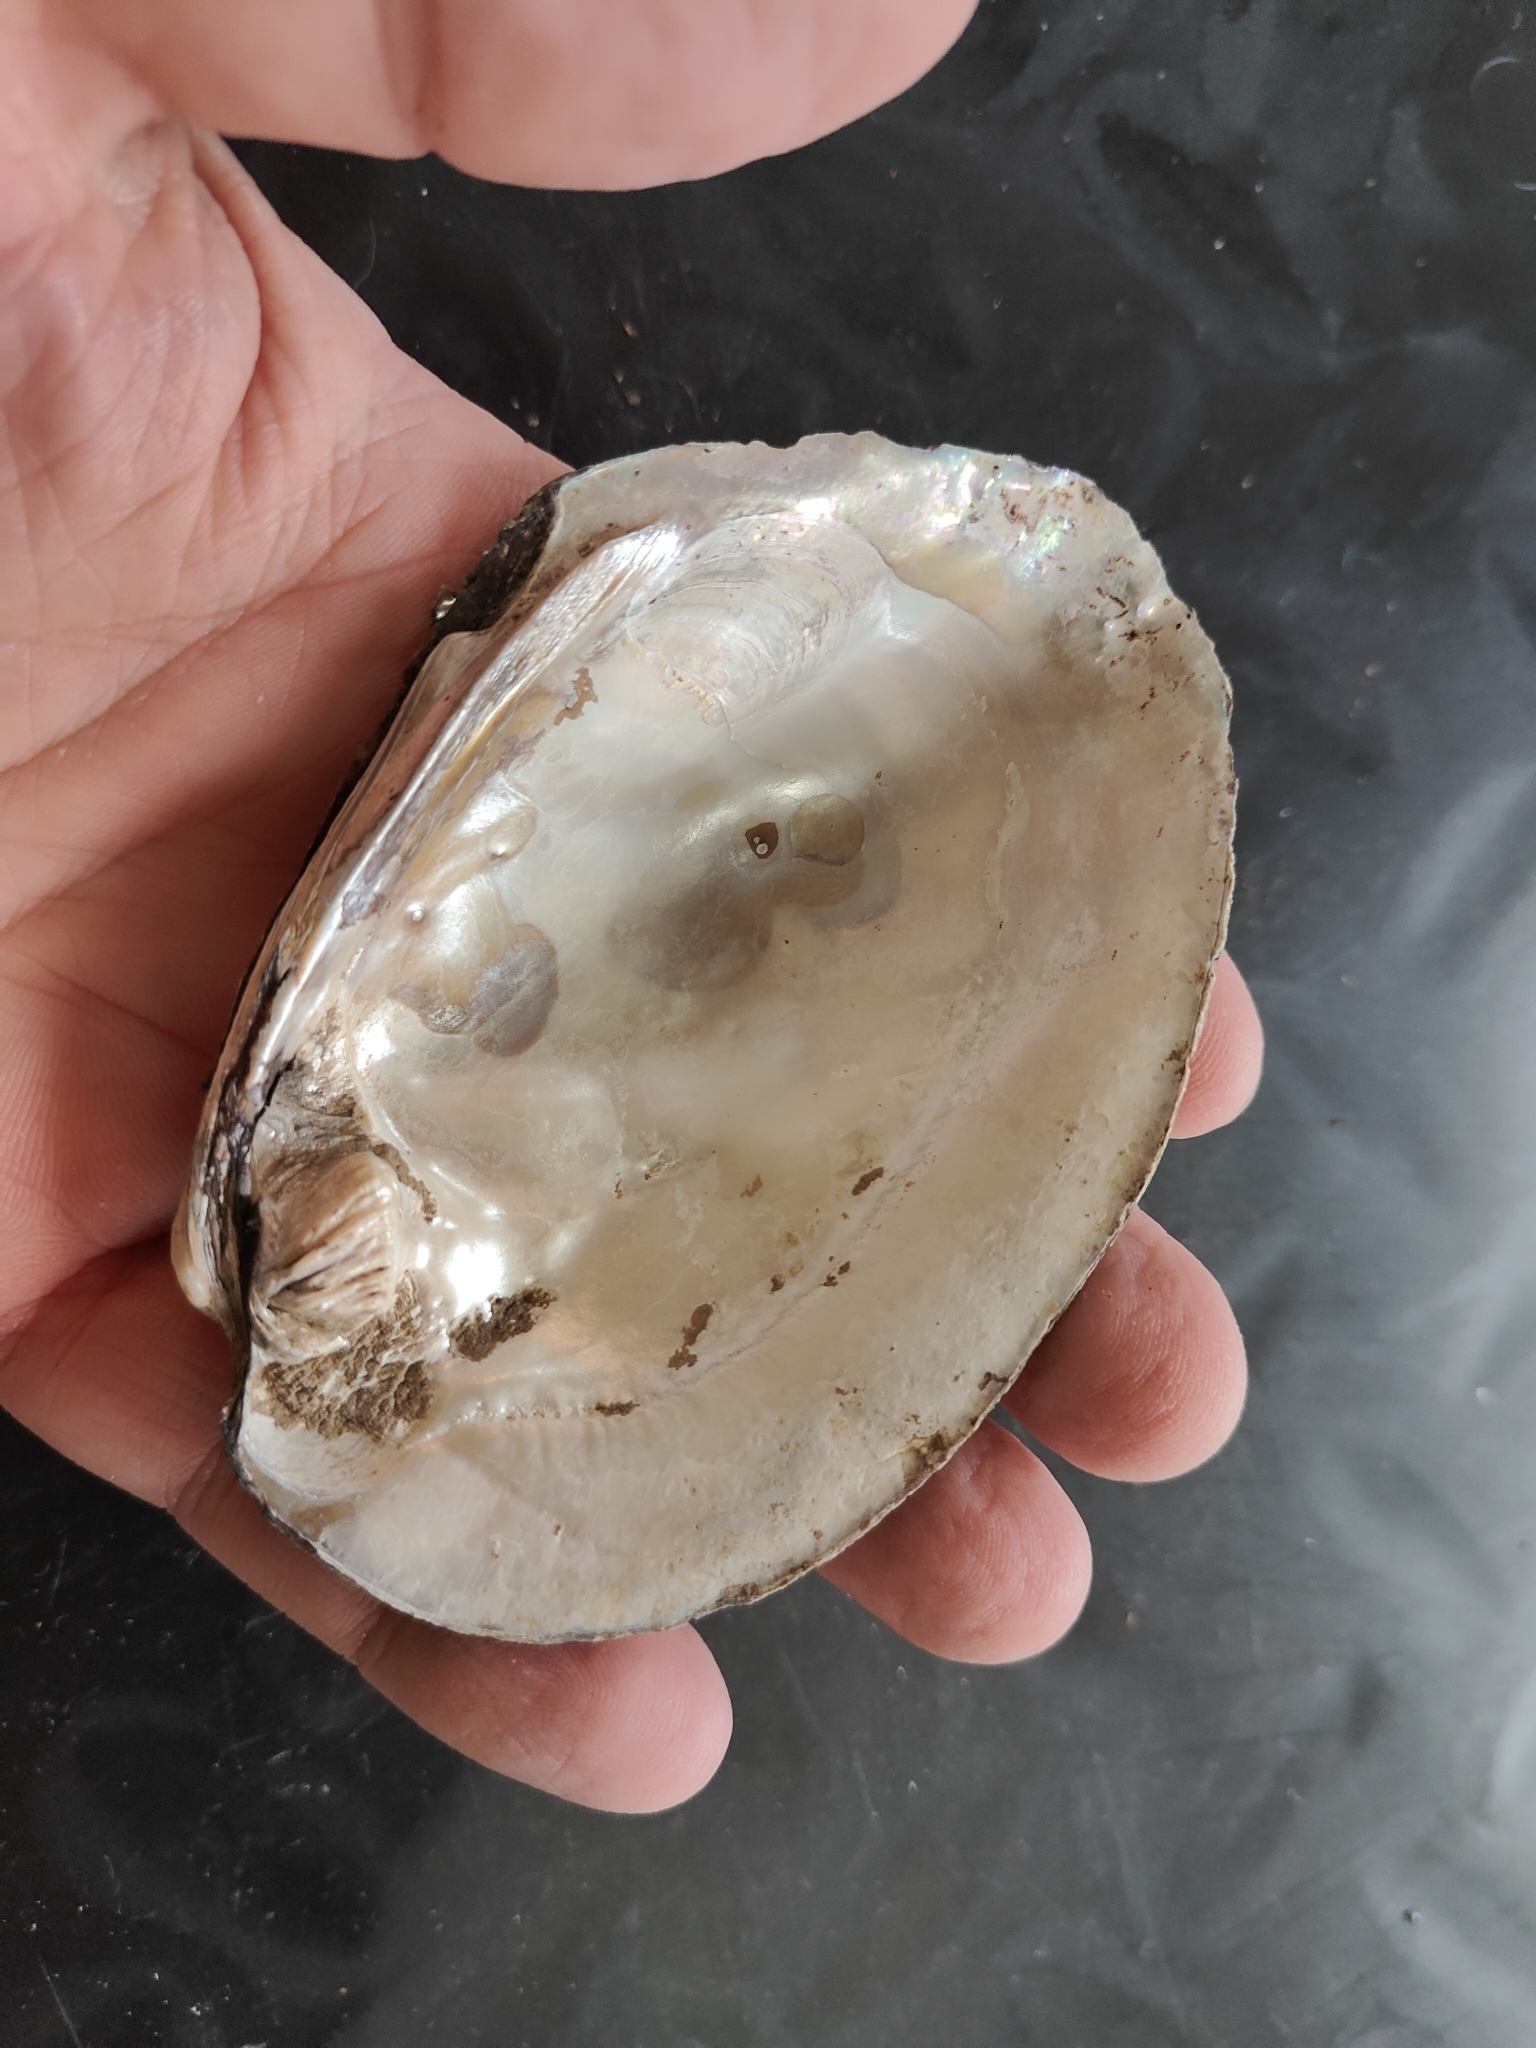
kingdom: Animalia
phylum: Mollusca
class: Bivalvia
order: Unionida
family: Unionidae
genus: Amblema
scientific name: Amblema plicata
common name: Threeridge
